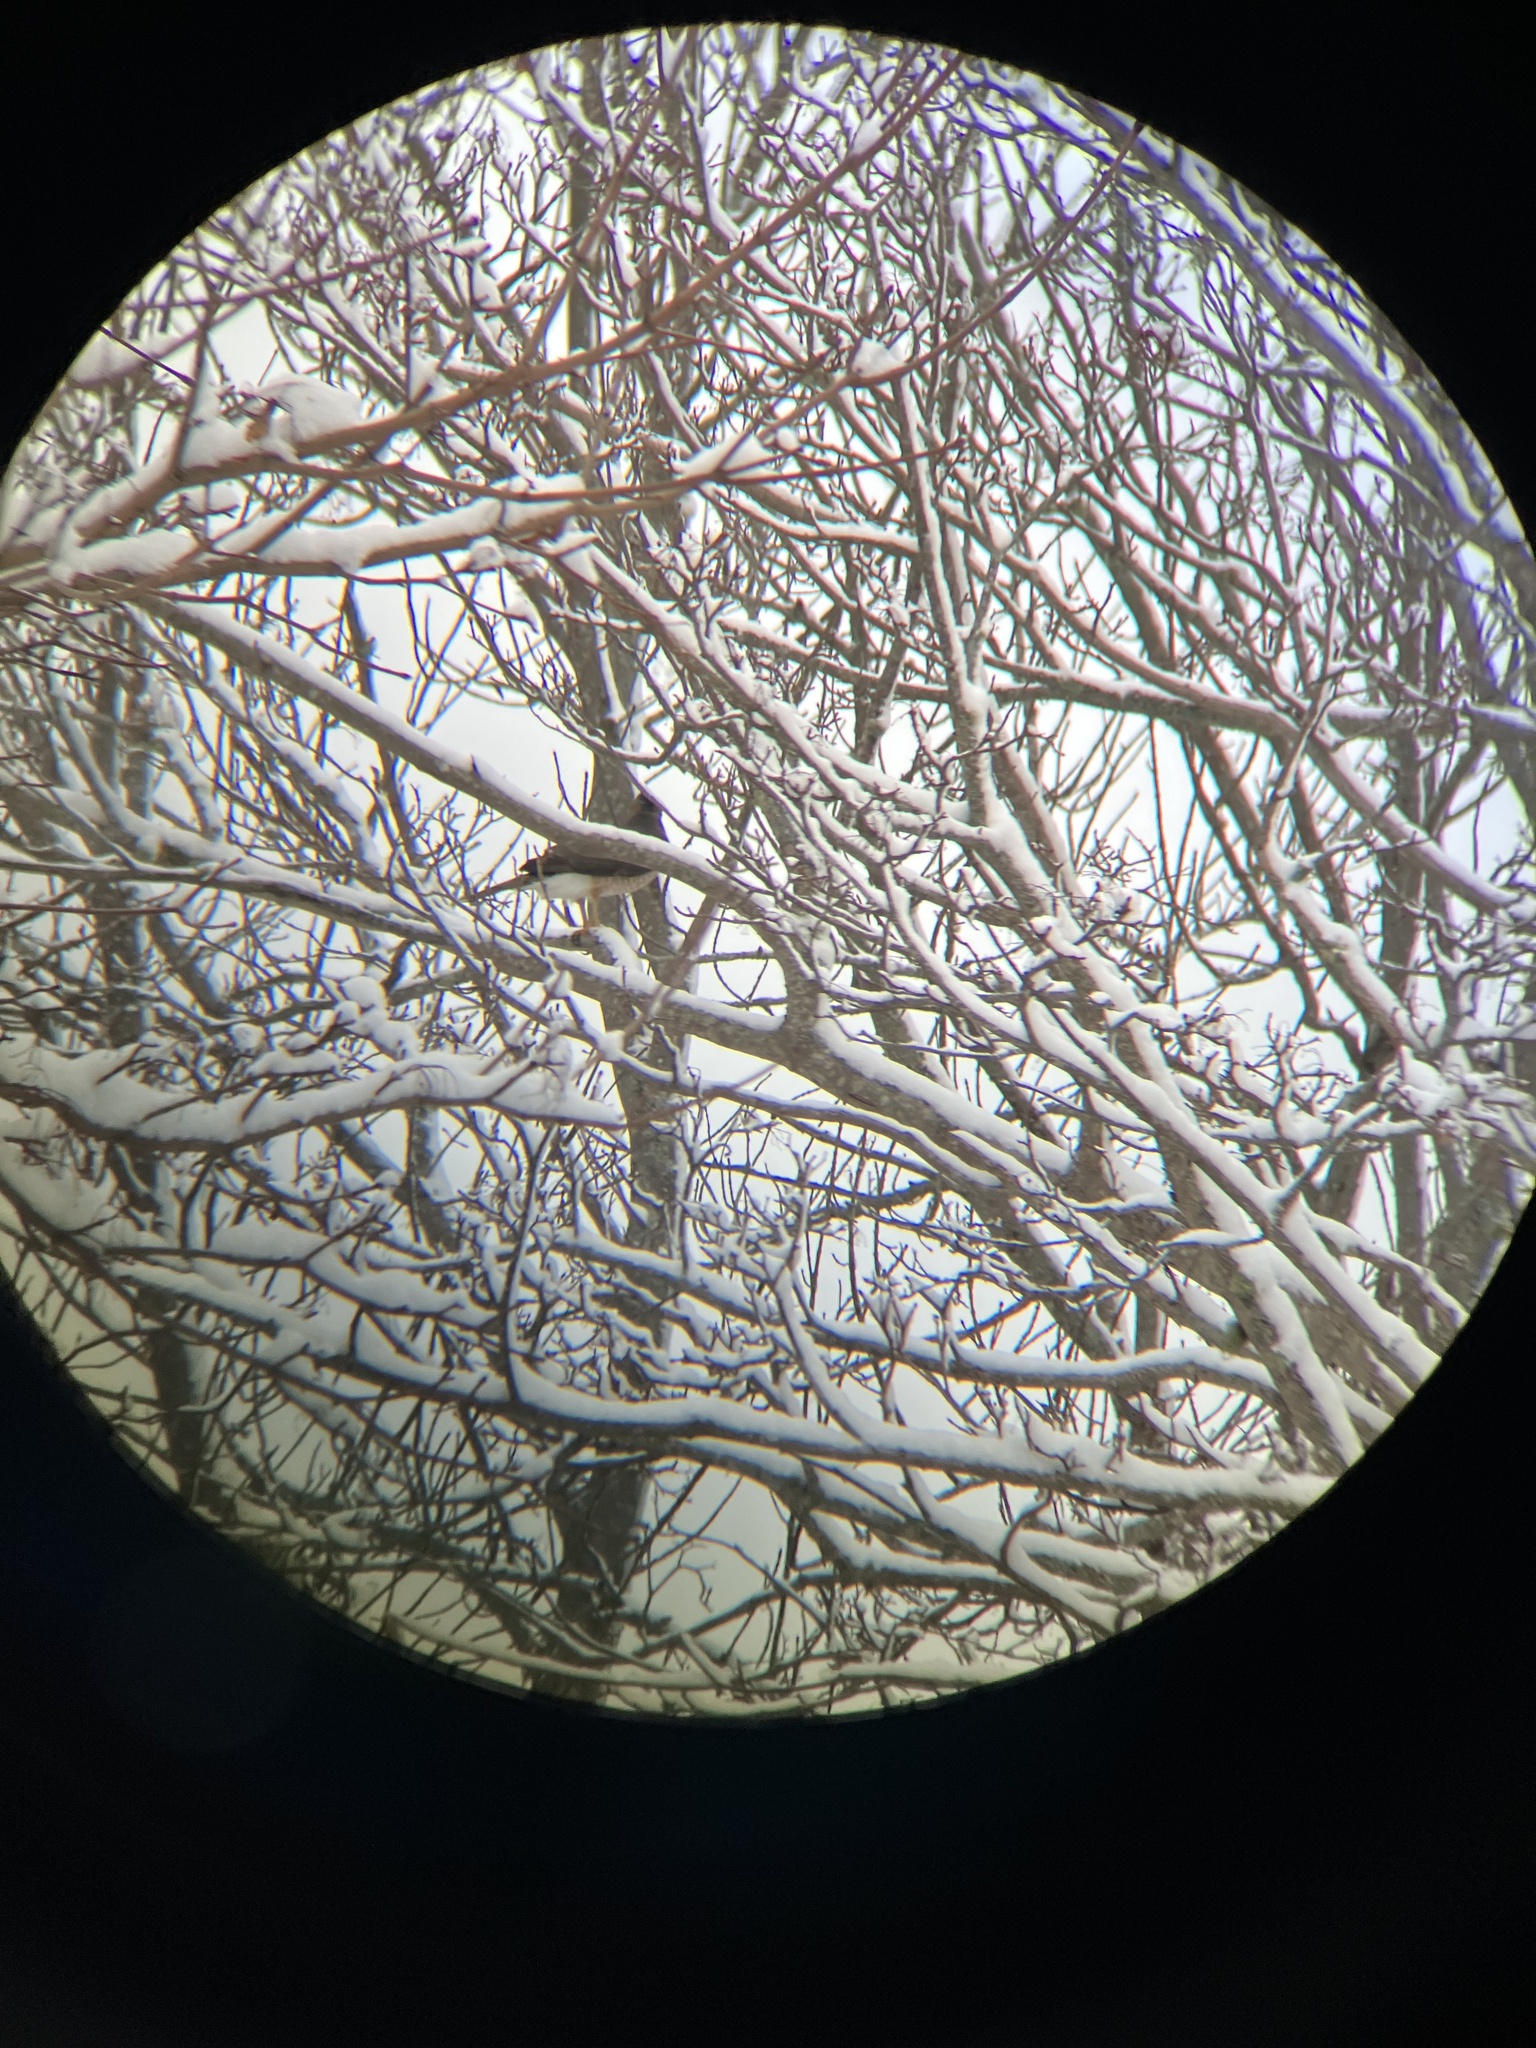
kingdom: Animalia
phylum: Chordata
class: Aves
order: Accipitriformes
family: Accipitridae
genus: Accipiter
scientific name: Accipiter cooperii
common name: Cooper's hawk
